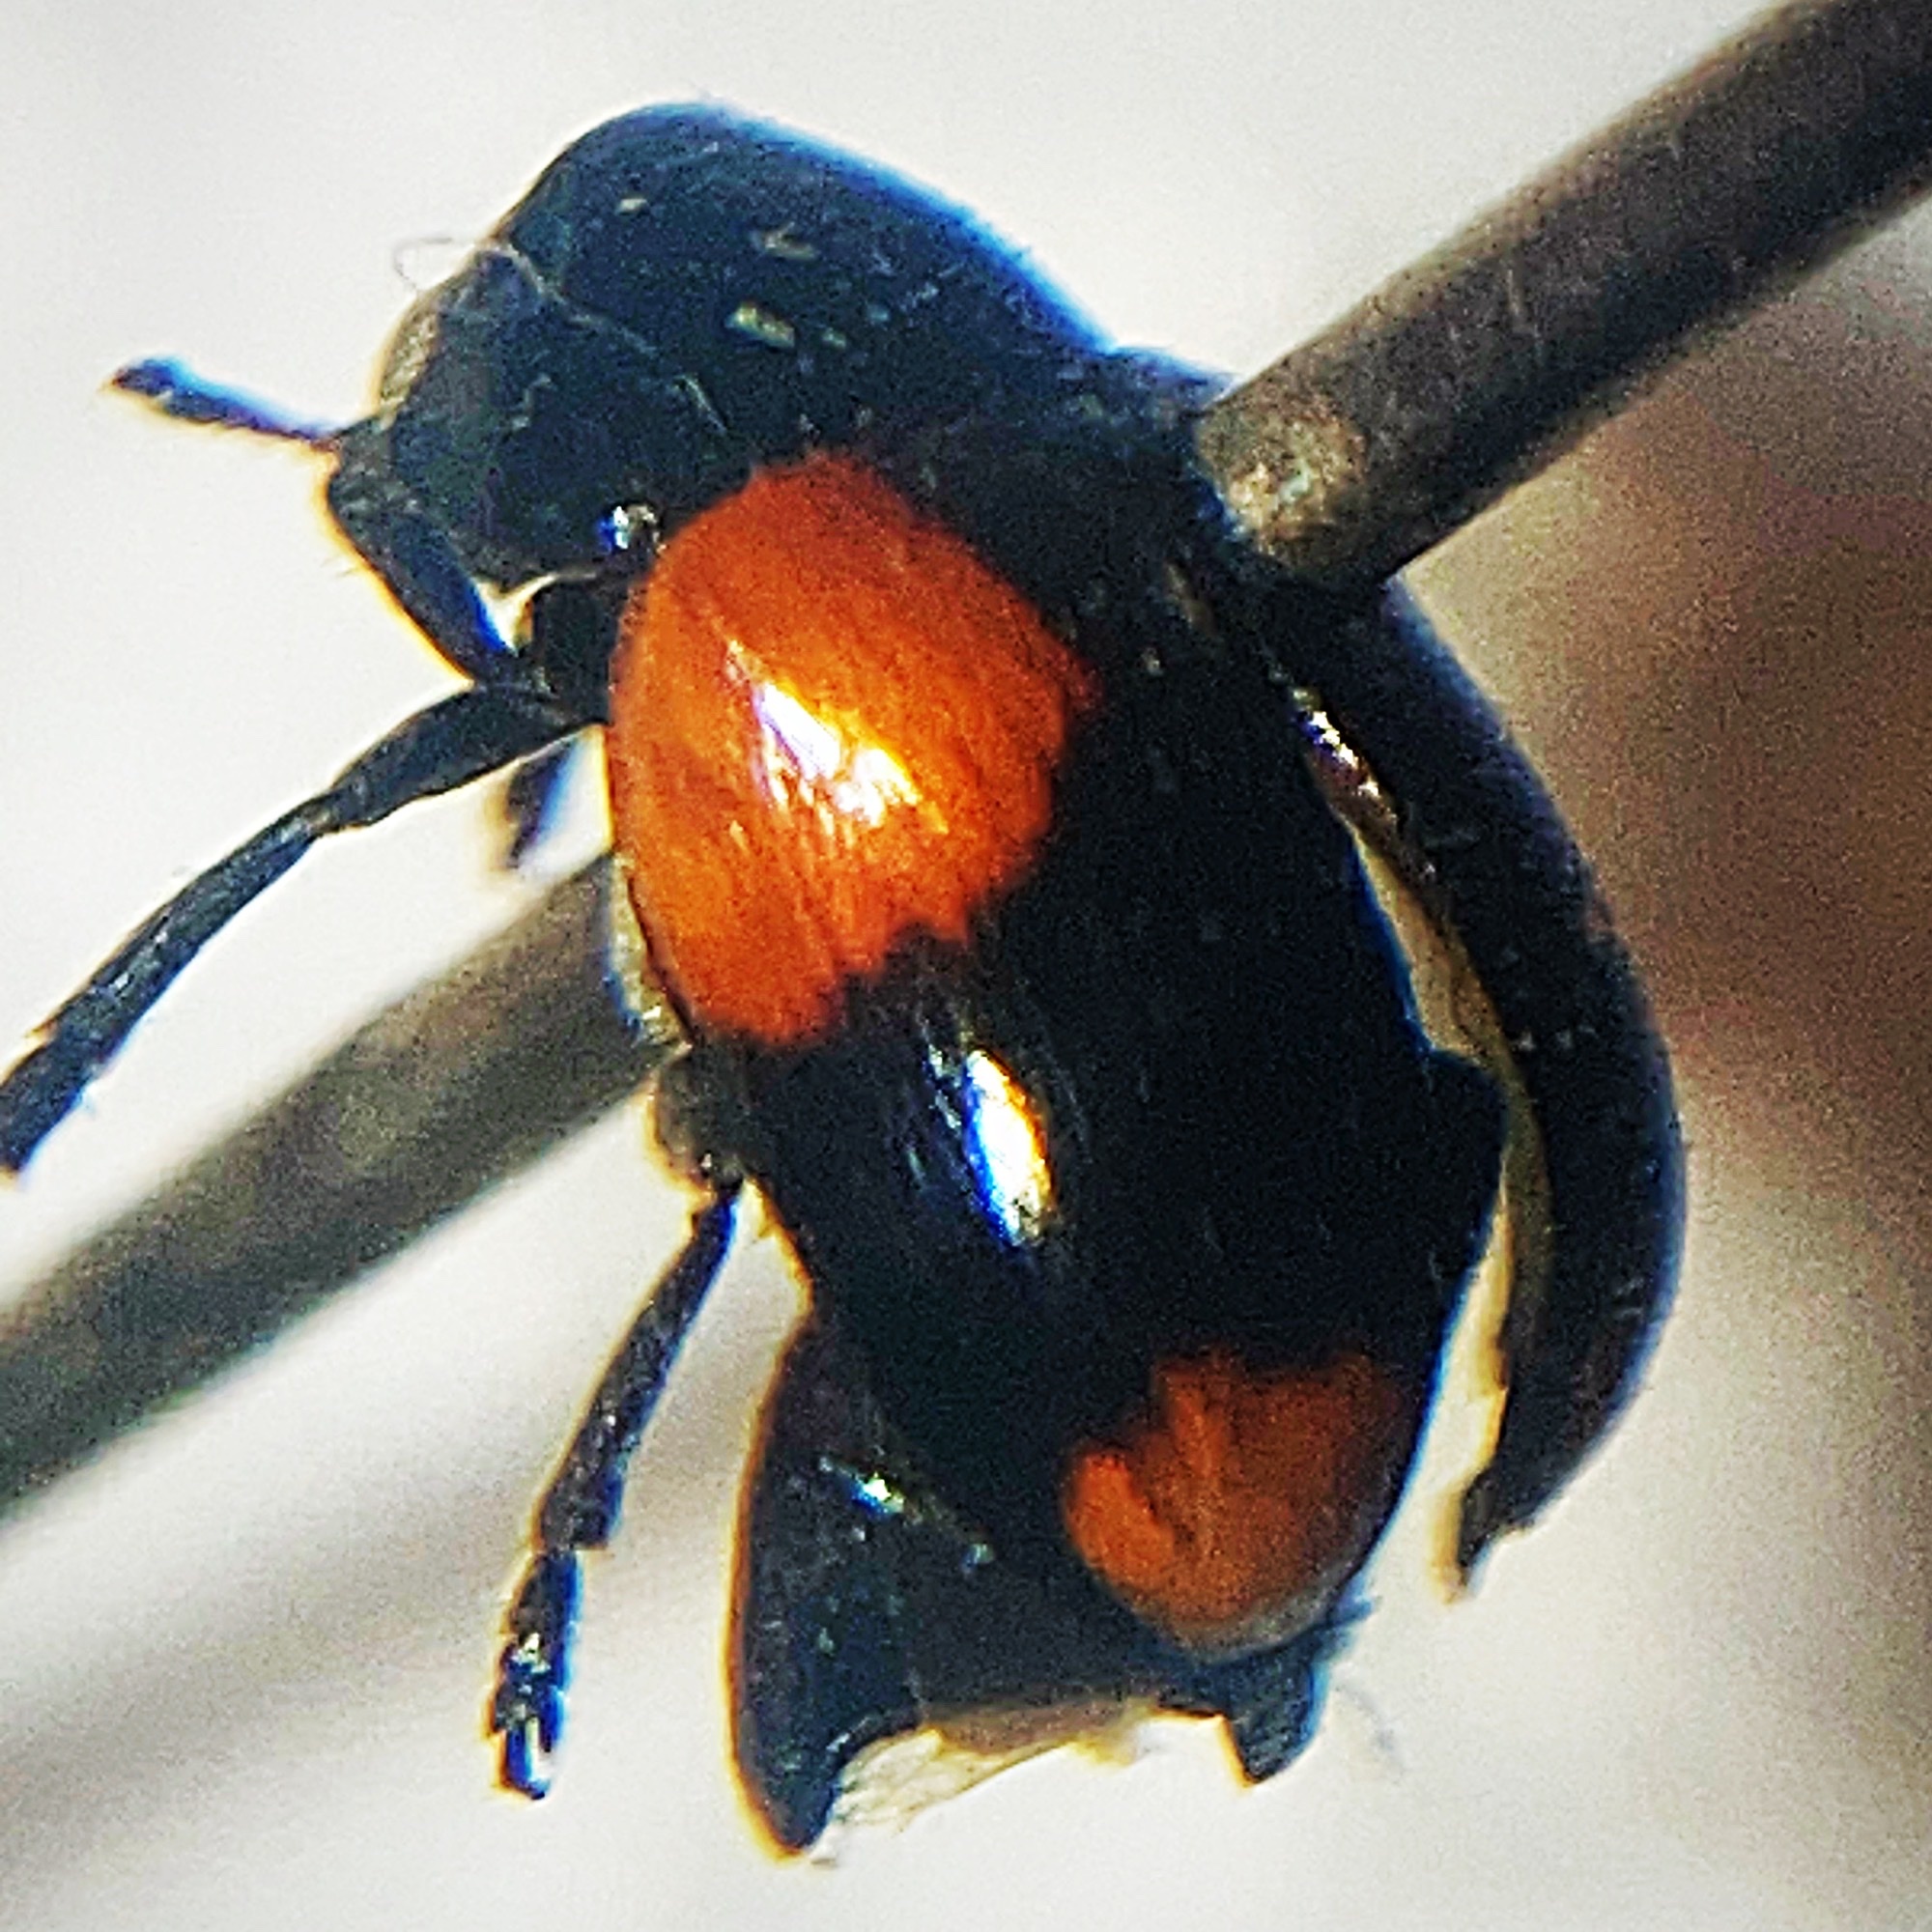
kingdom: Animalia
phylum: Arthropoda
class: Insecta
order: Coleoptera
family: Chrysomelidae
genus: Babia
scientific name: Babia quadriguttata
